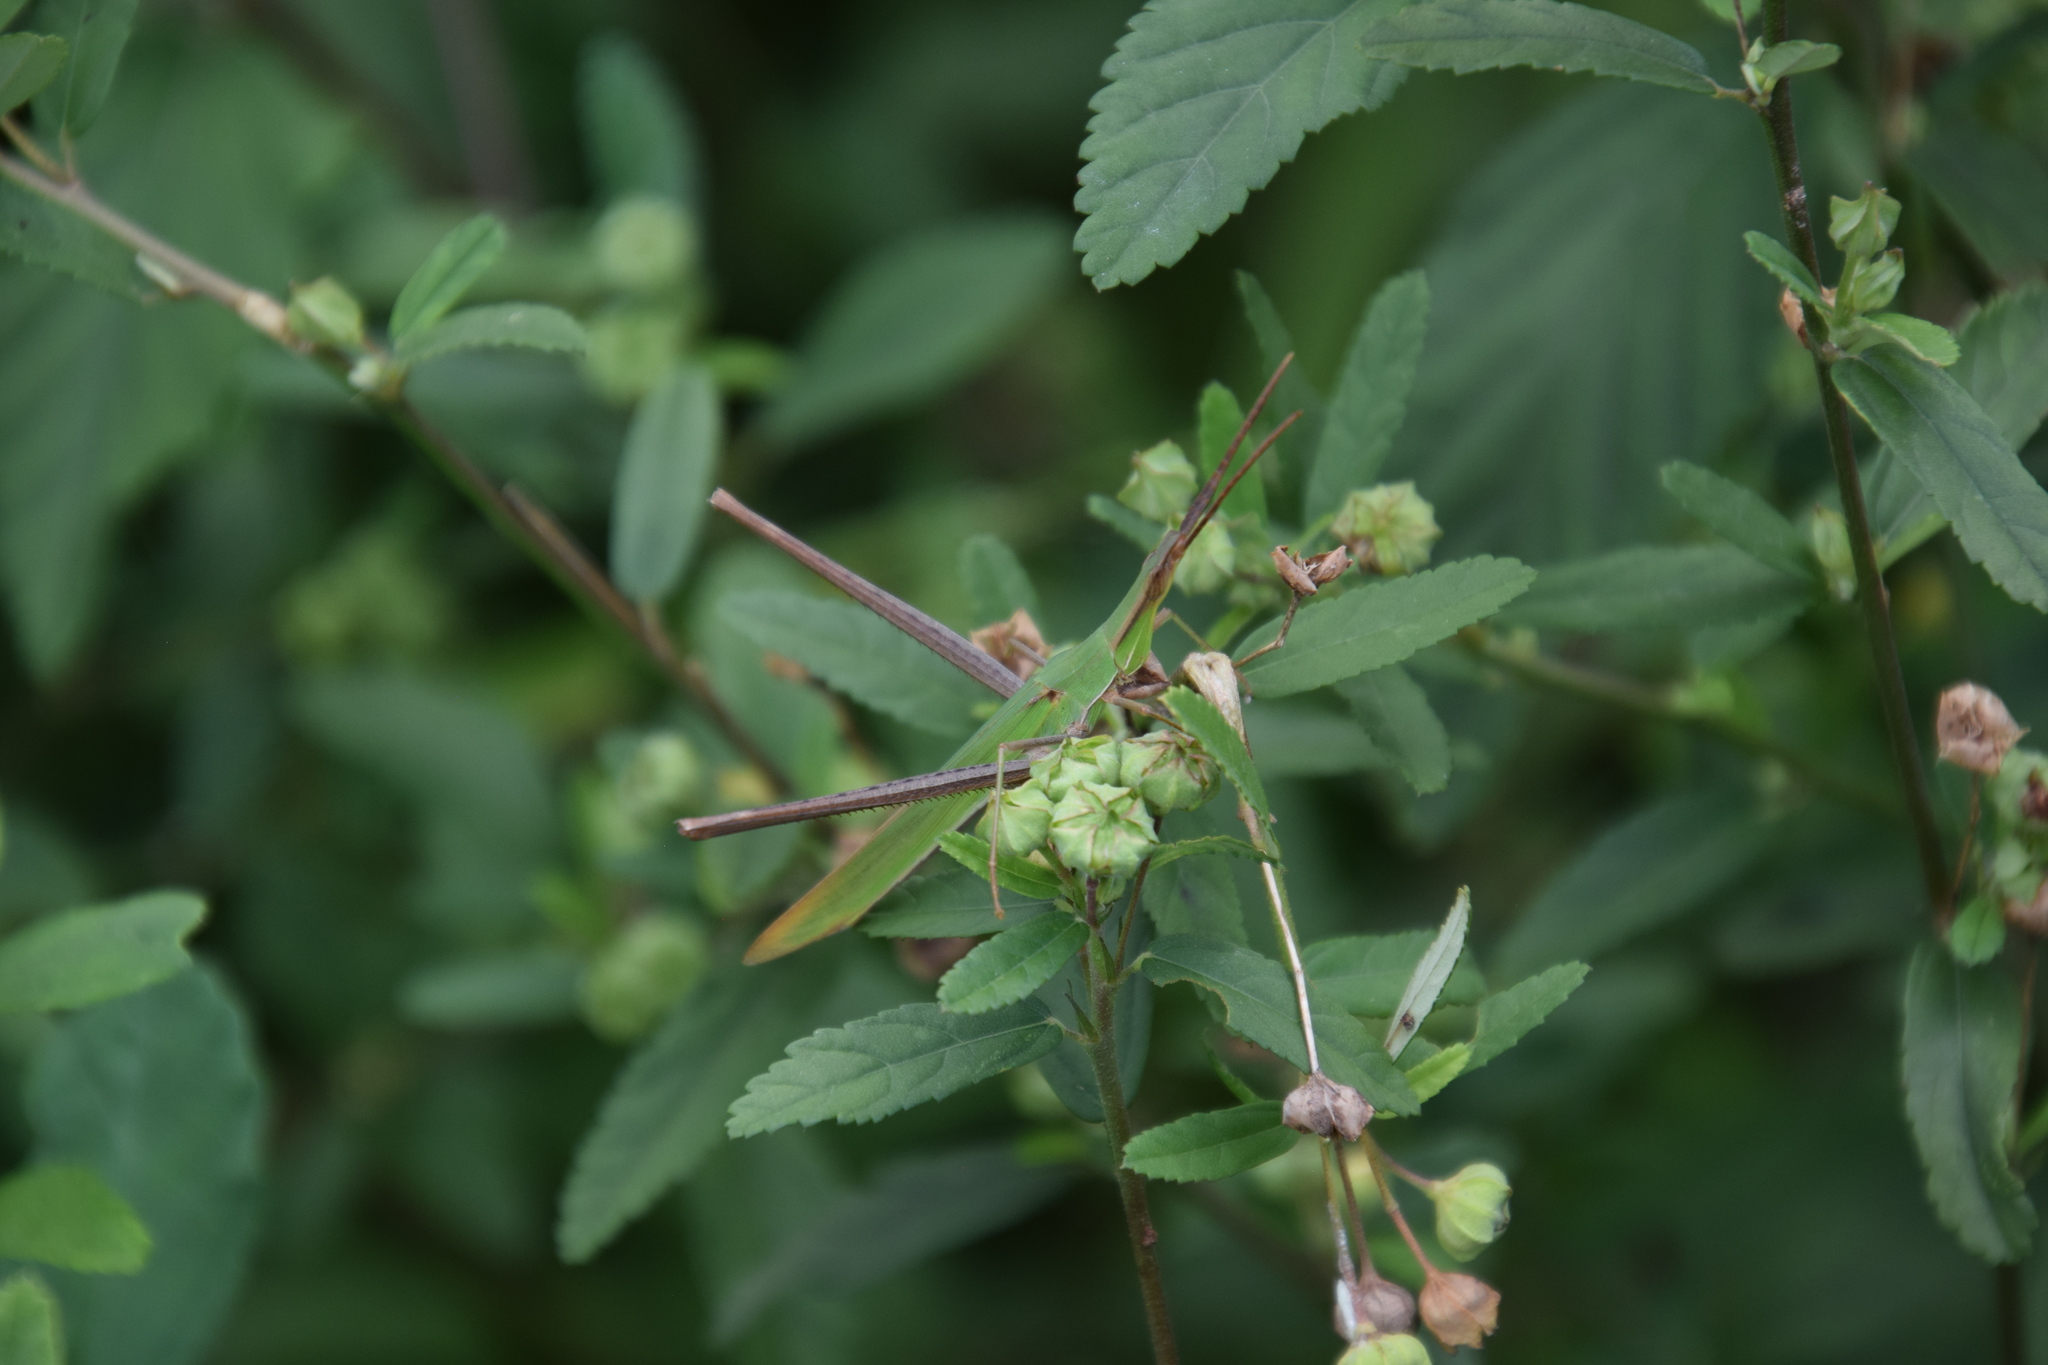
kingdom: Animalia
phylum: Arthropoda
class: Insecta
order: Orthoptera
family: Acrididae
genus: Acrida
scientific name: Acrida conica
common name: Giant green slantface
